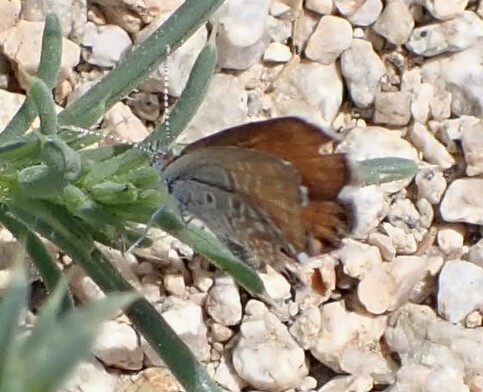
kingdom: Animalia
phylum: Arthropoda
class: Insecta
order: Lepidoptera
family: Lycaenidae
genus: Brephidium
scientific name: Brephidium exilis
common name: Pygmy blue
